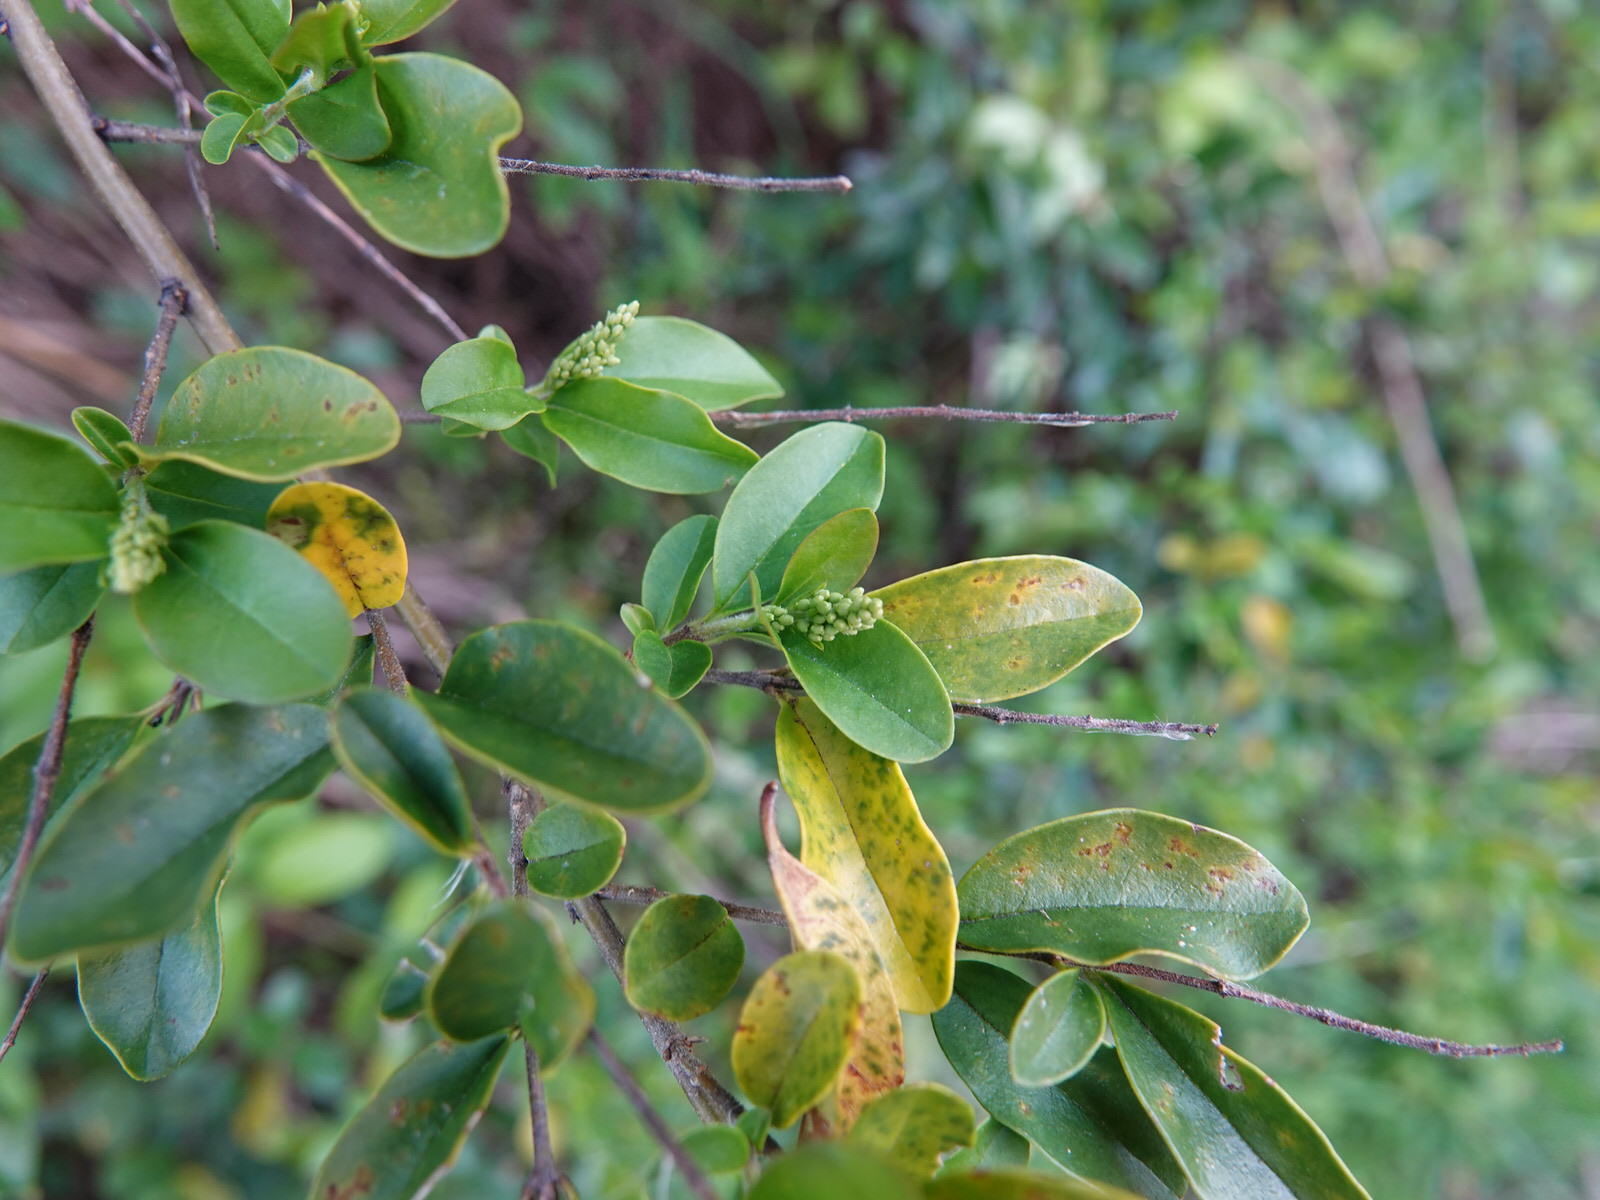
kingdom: Plantae
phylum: Tracheophyta
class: Magnoliopsida
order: Lamiales
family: Oleaceae
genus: Ligustrum
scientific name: Ligustrum sinense
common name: Chinese privet
